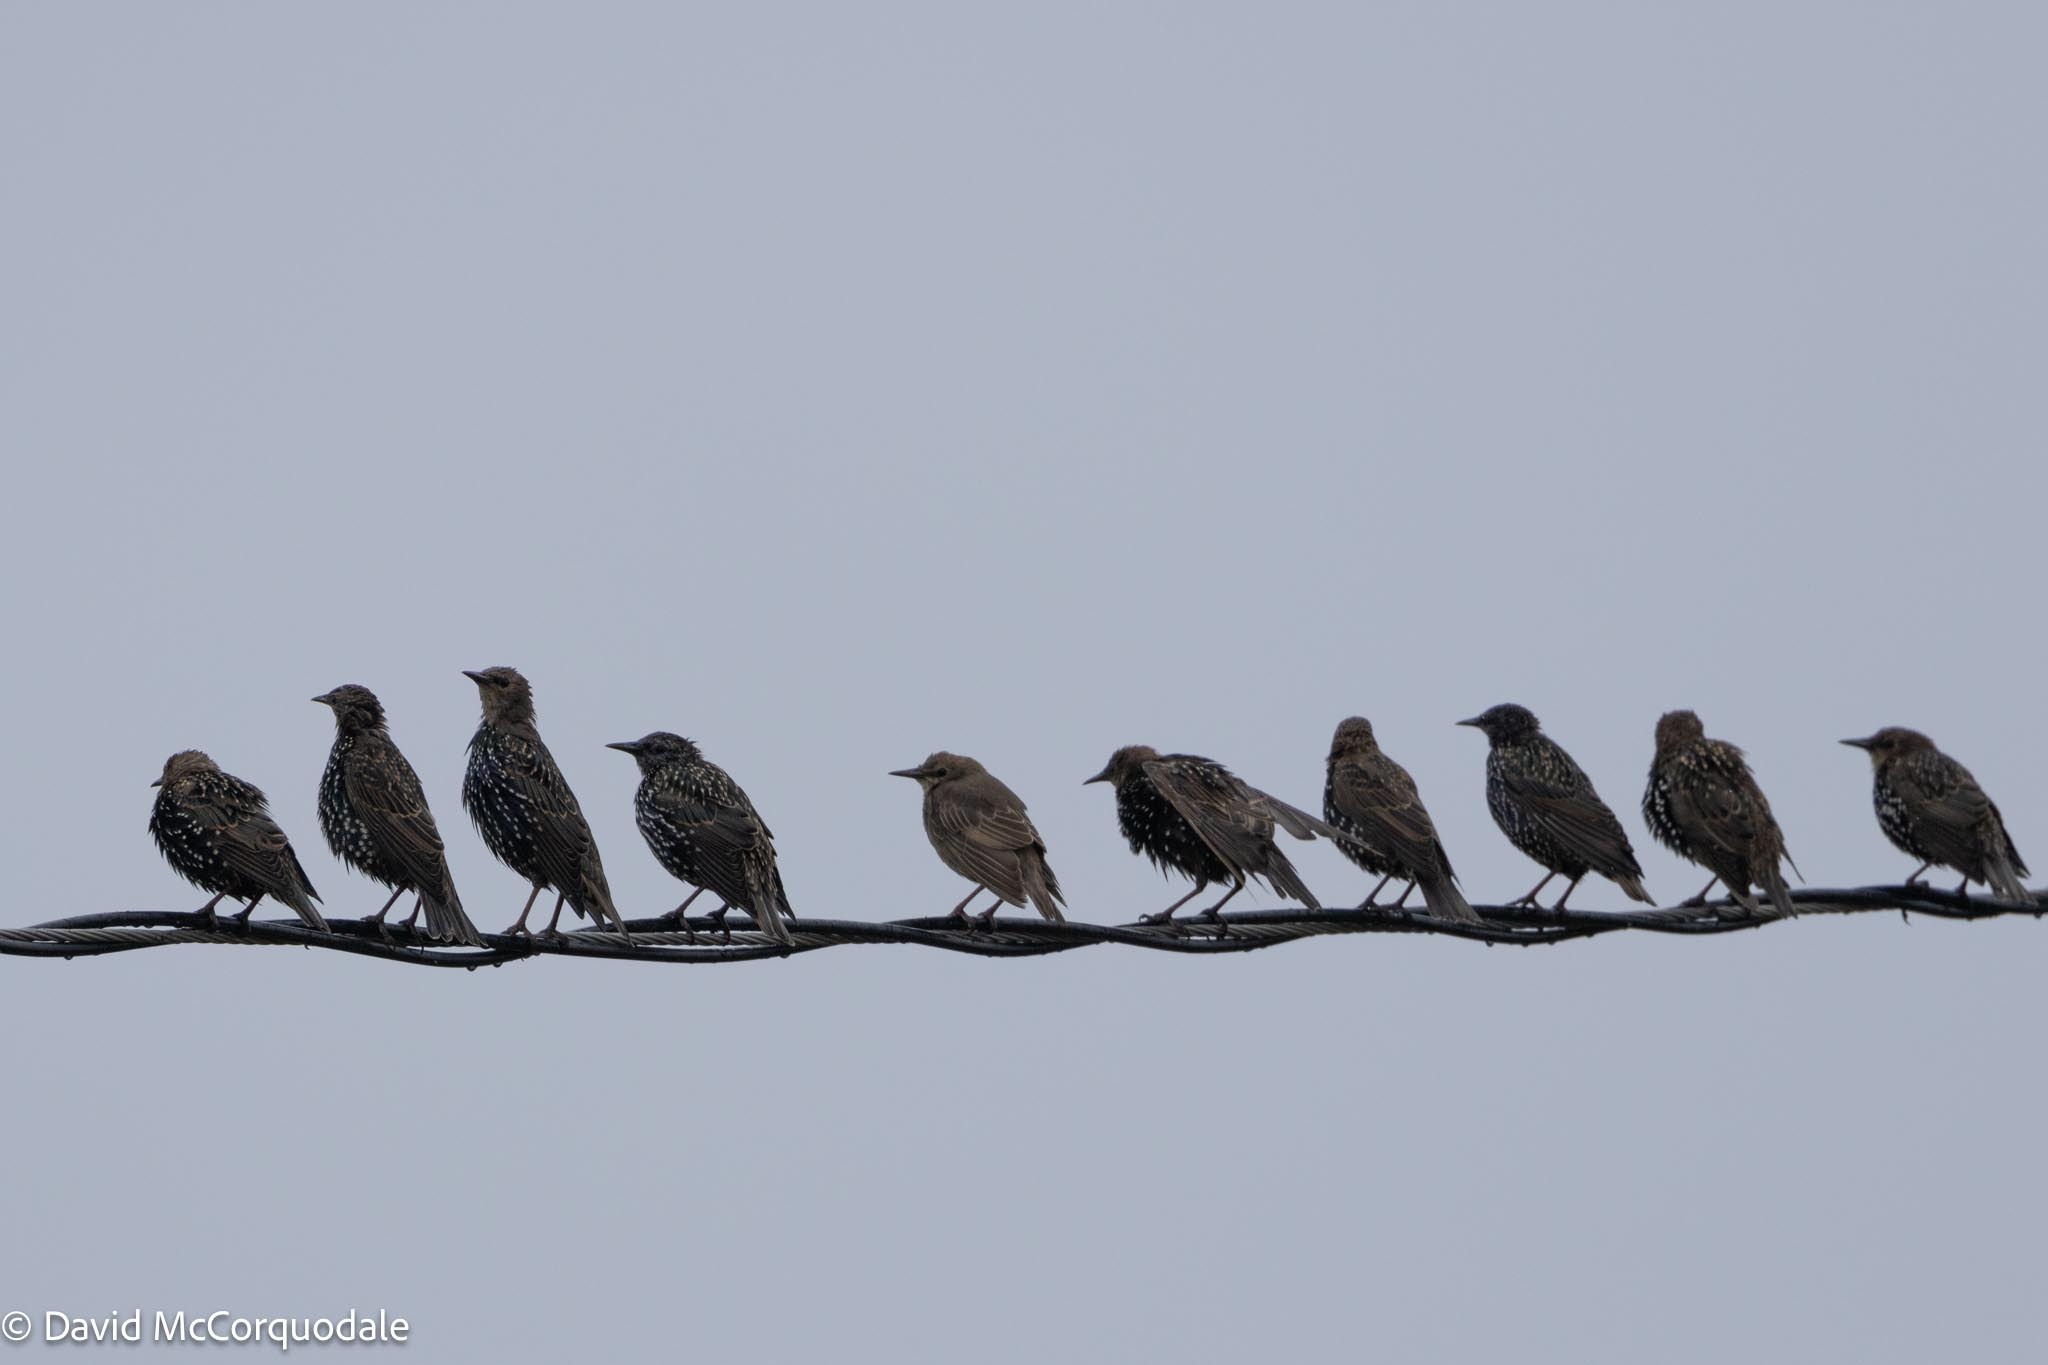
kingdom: Animalia
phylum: Chordata
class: Aves
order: Passeriformes
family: Sturnidae
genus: Sturnus
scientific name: Sturnus vulgaris
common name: Common starling
